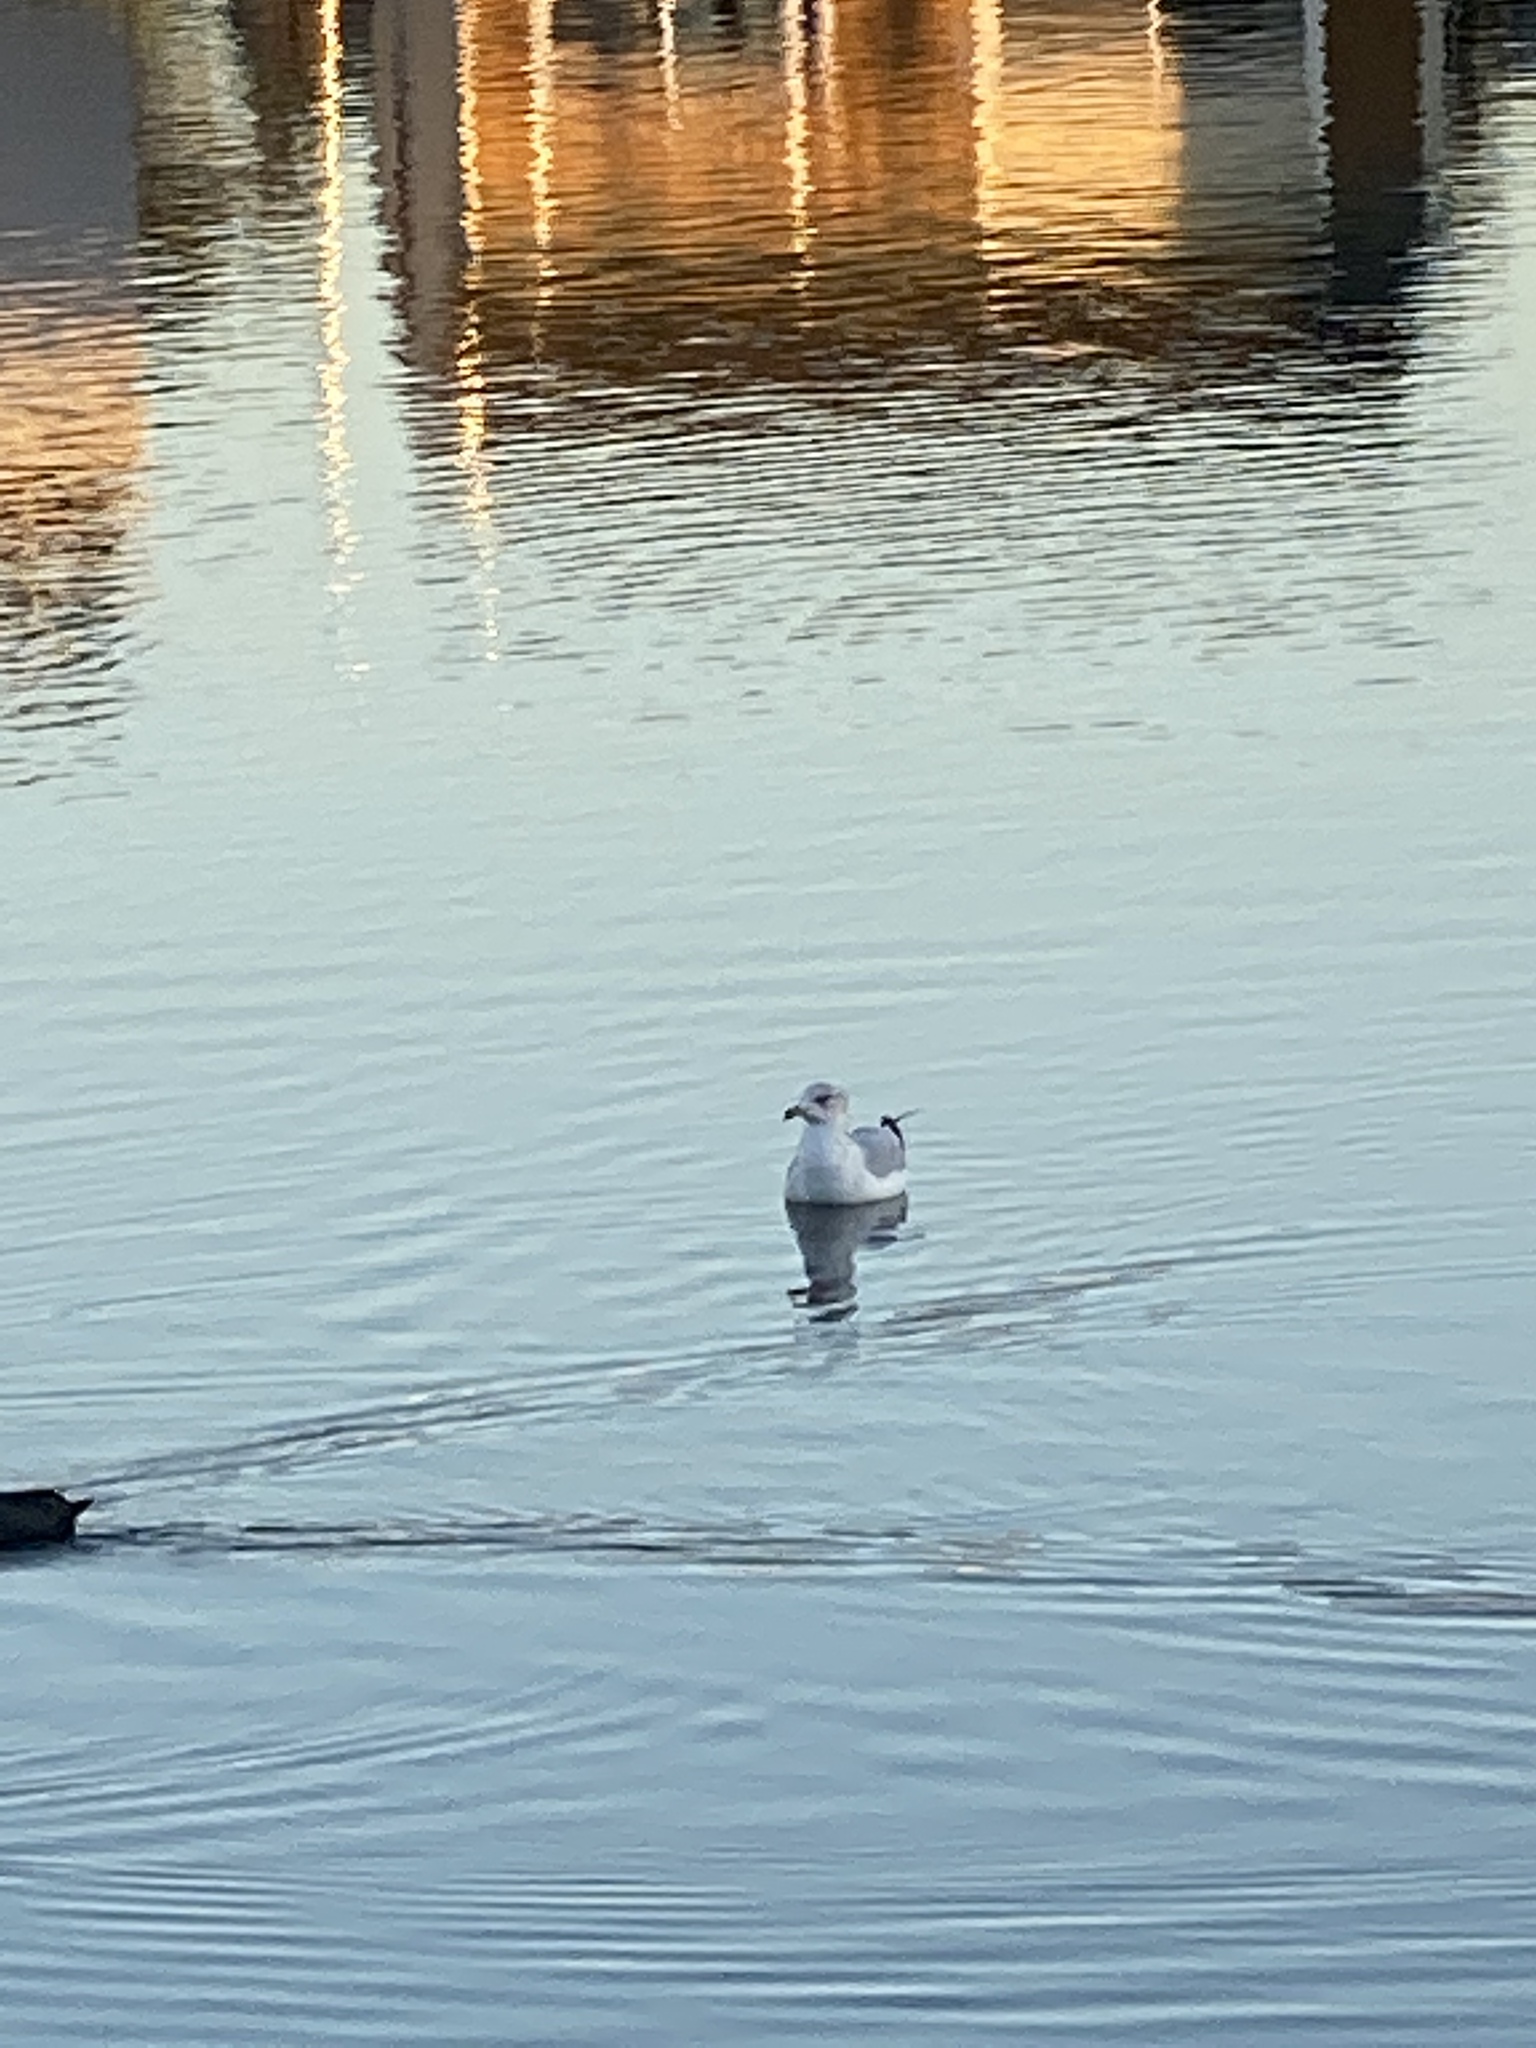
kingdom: Animalia
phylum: Chordata
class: Aves
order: Charadriiformes
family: Laridae
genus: Larus
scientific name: Larus californicus
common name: California gull
